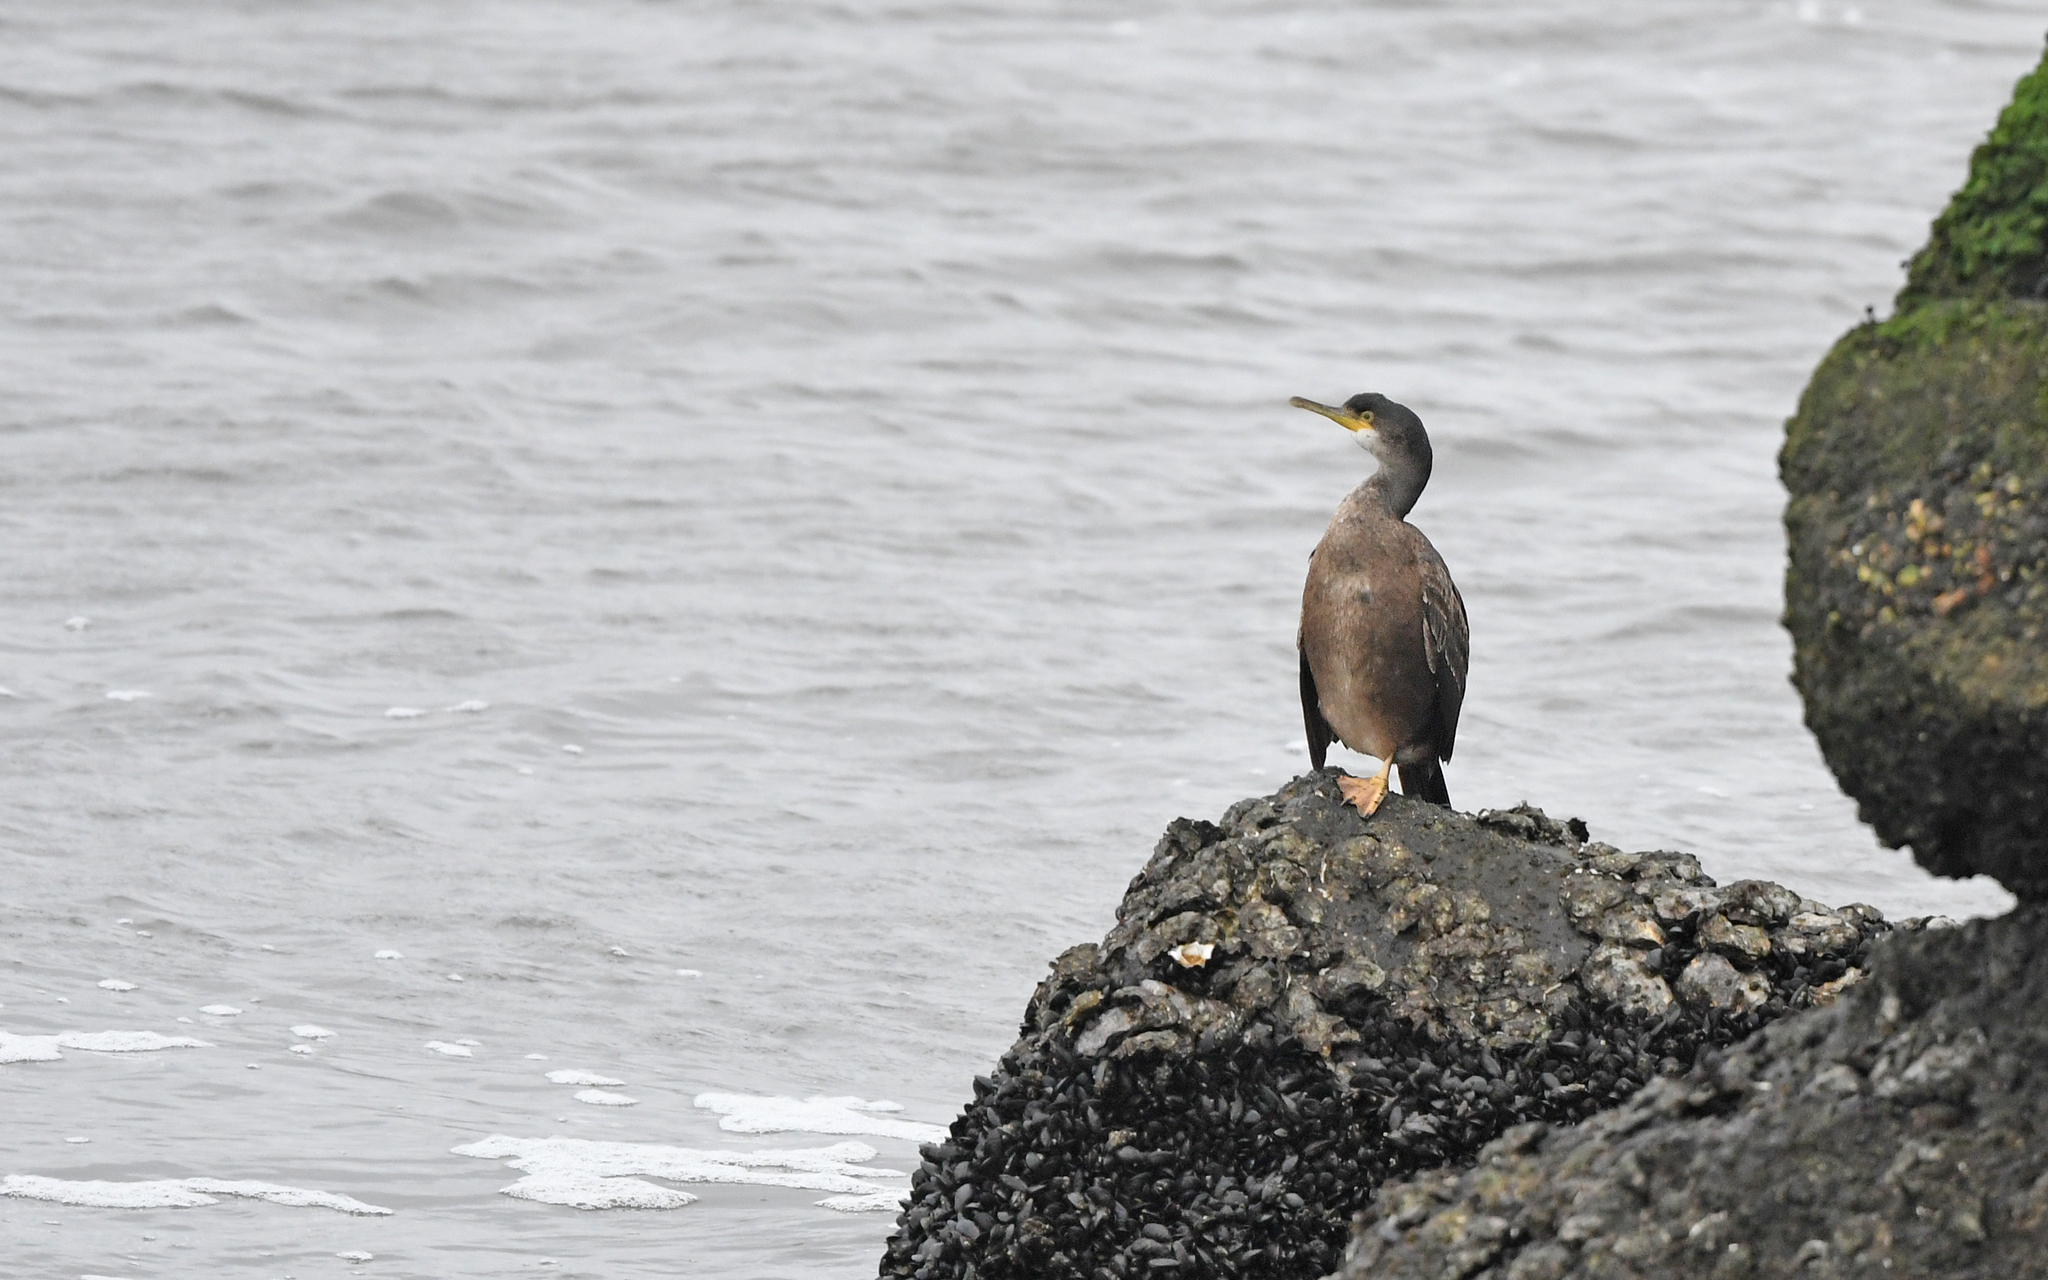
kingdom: Animalia
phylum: Chordata
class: Aves
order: Suliformes
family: Phalacrocoracidae
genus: Phalacrocorax
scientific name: Phalacrocorax aristotelis
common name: European shag
